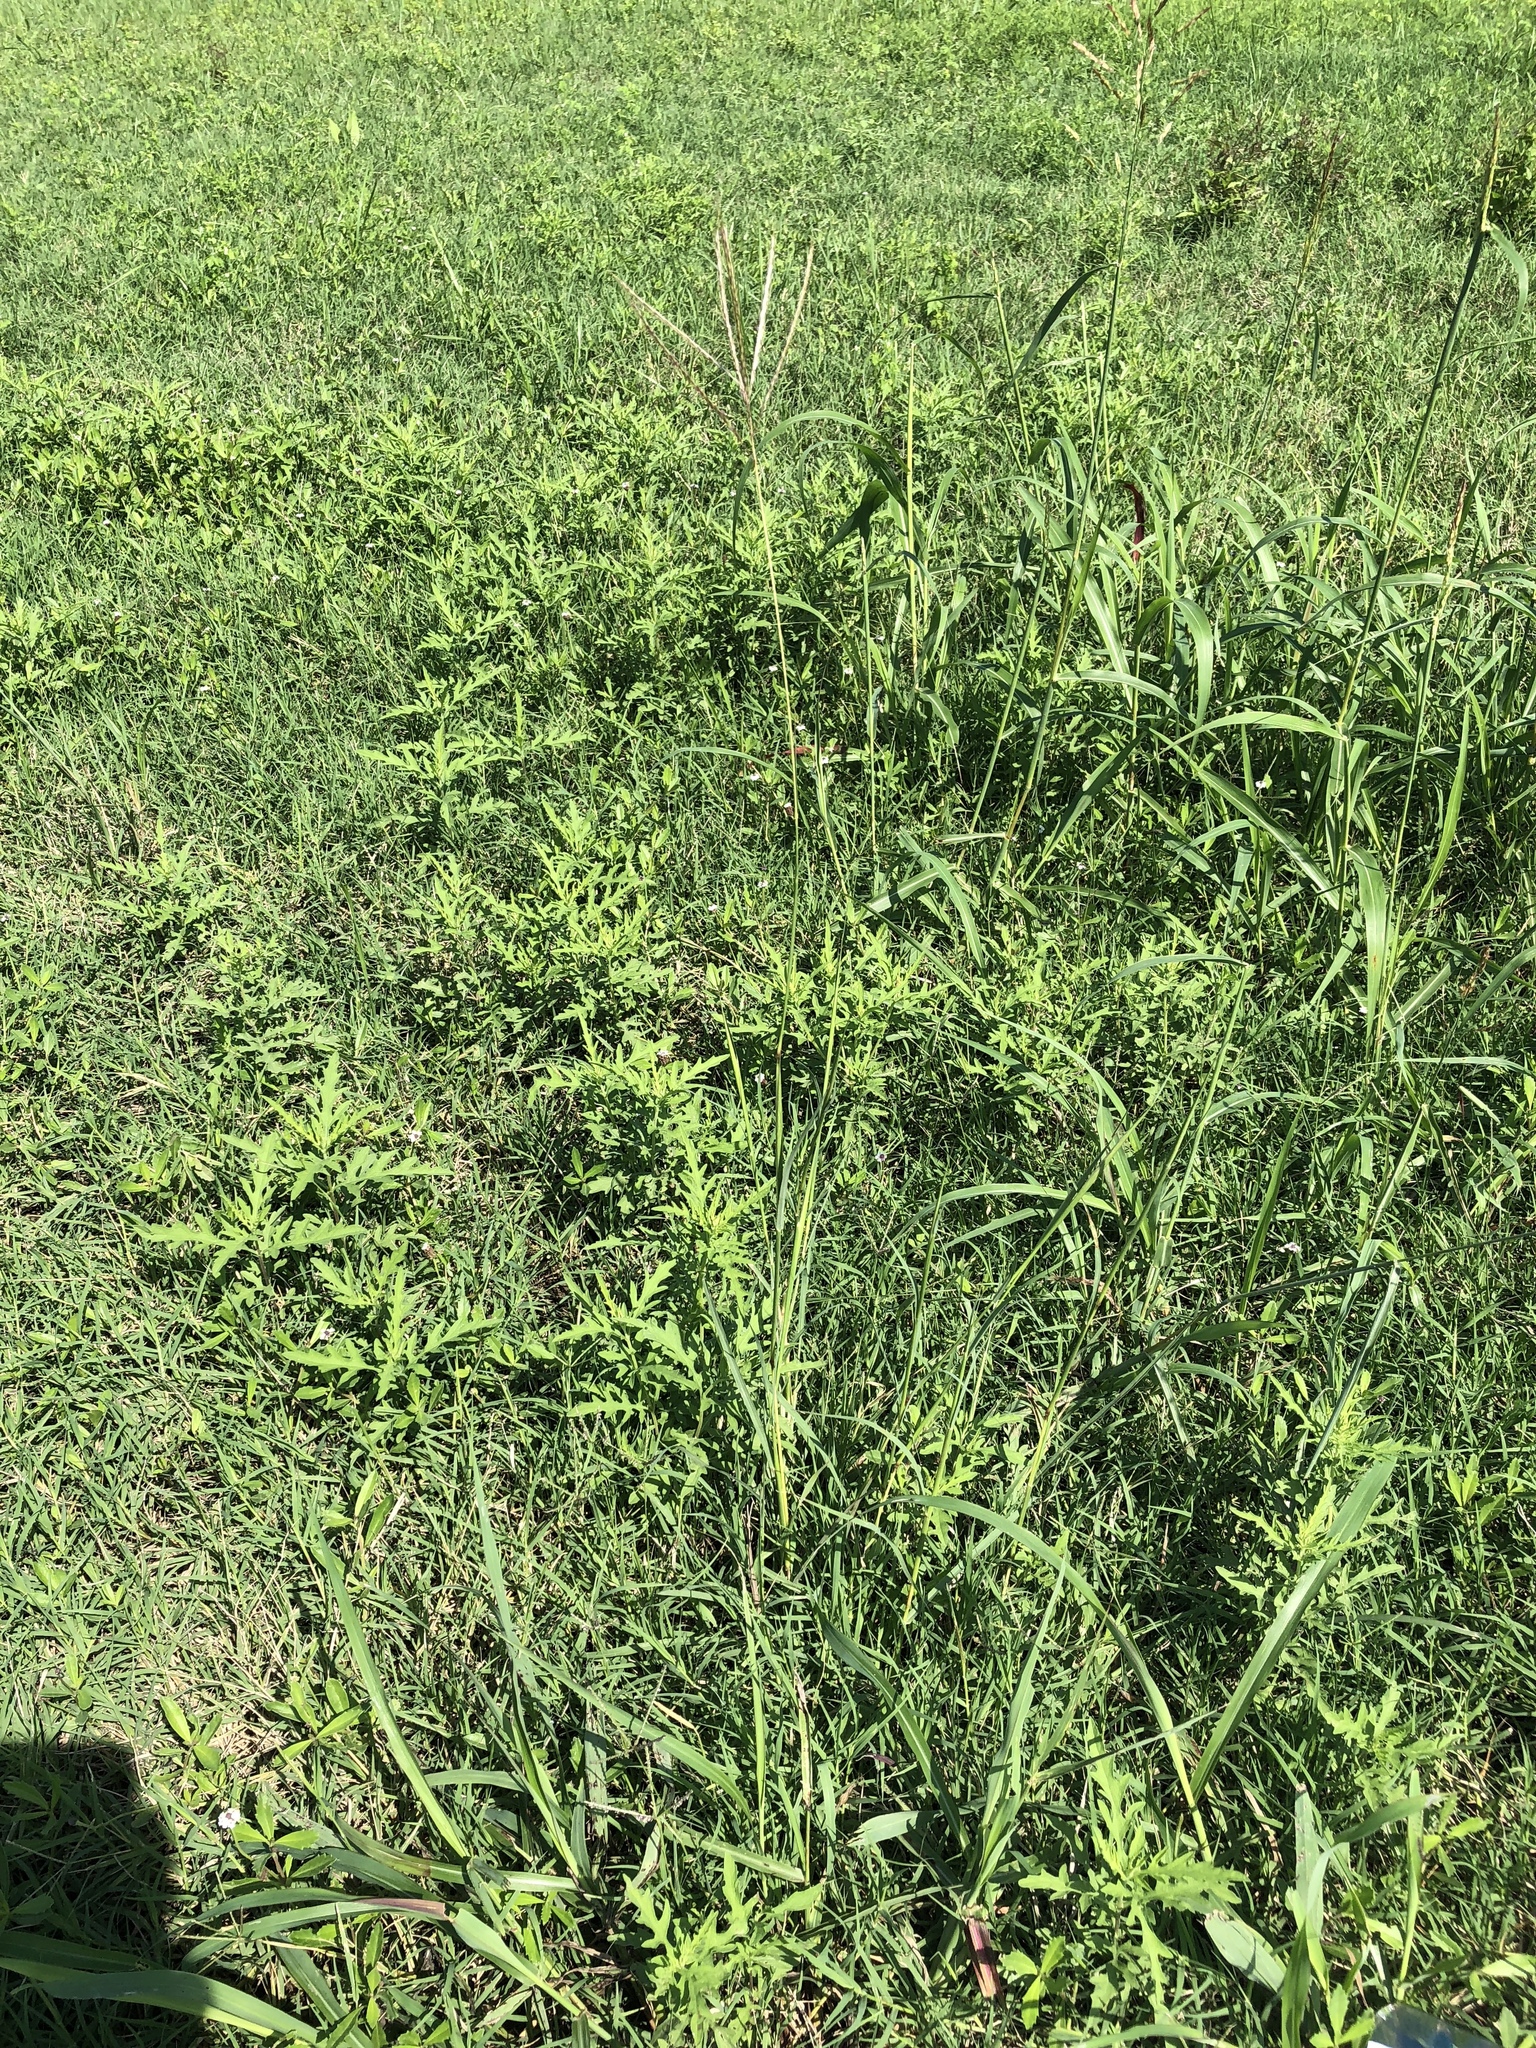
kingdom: Plantae
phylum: Tracheophyta
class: Liliopsida
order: Poales
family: Poaceae
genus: Bothriochloa
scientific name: Bothriochloa ischaemum
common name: Yellow bluestem
